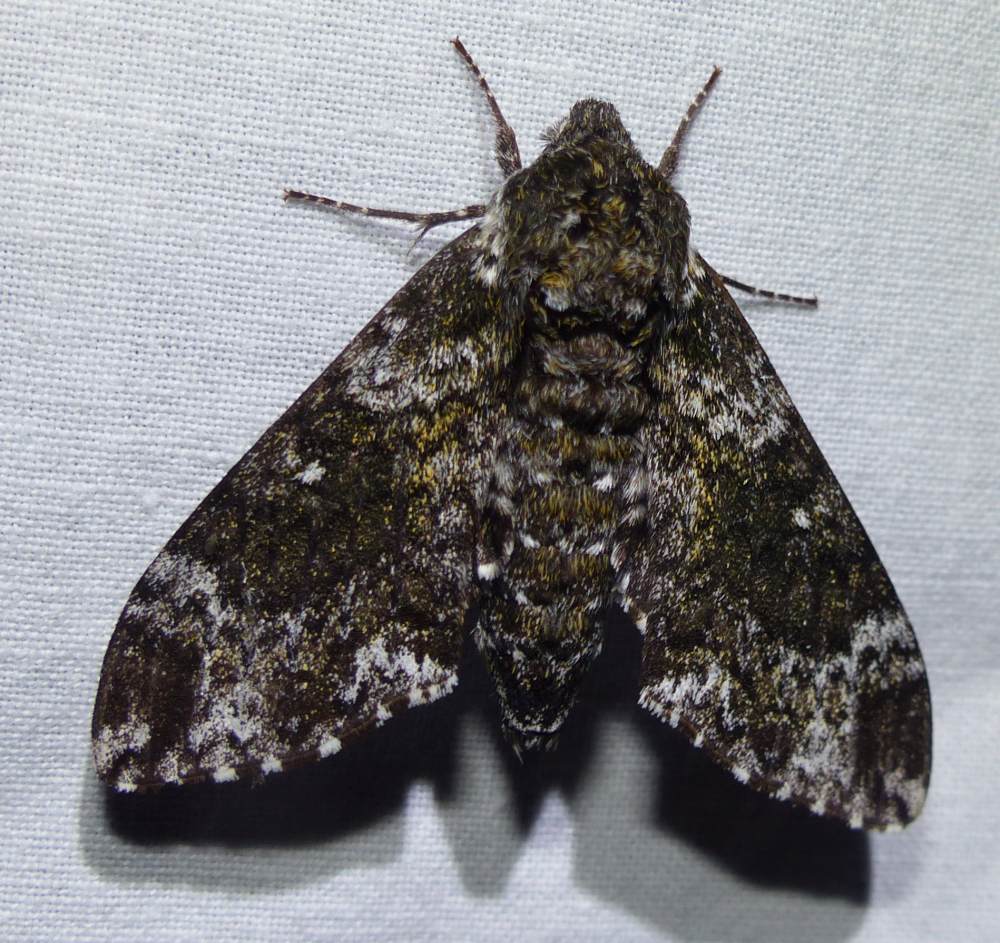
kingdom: Animalia
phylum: Arthropoda
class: Insecta
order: Lepidoptera
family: Sphingidae
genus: Dolba
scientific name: Dolba hyloeus
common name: Pawpaw sphinx
